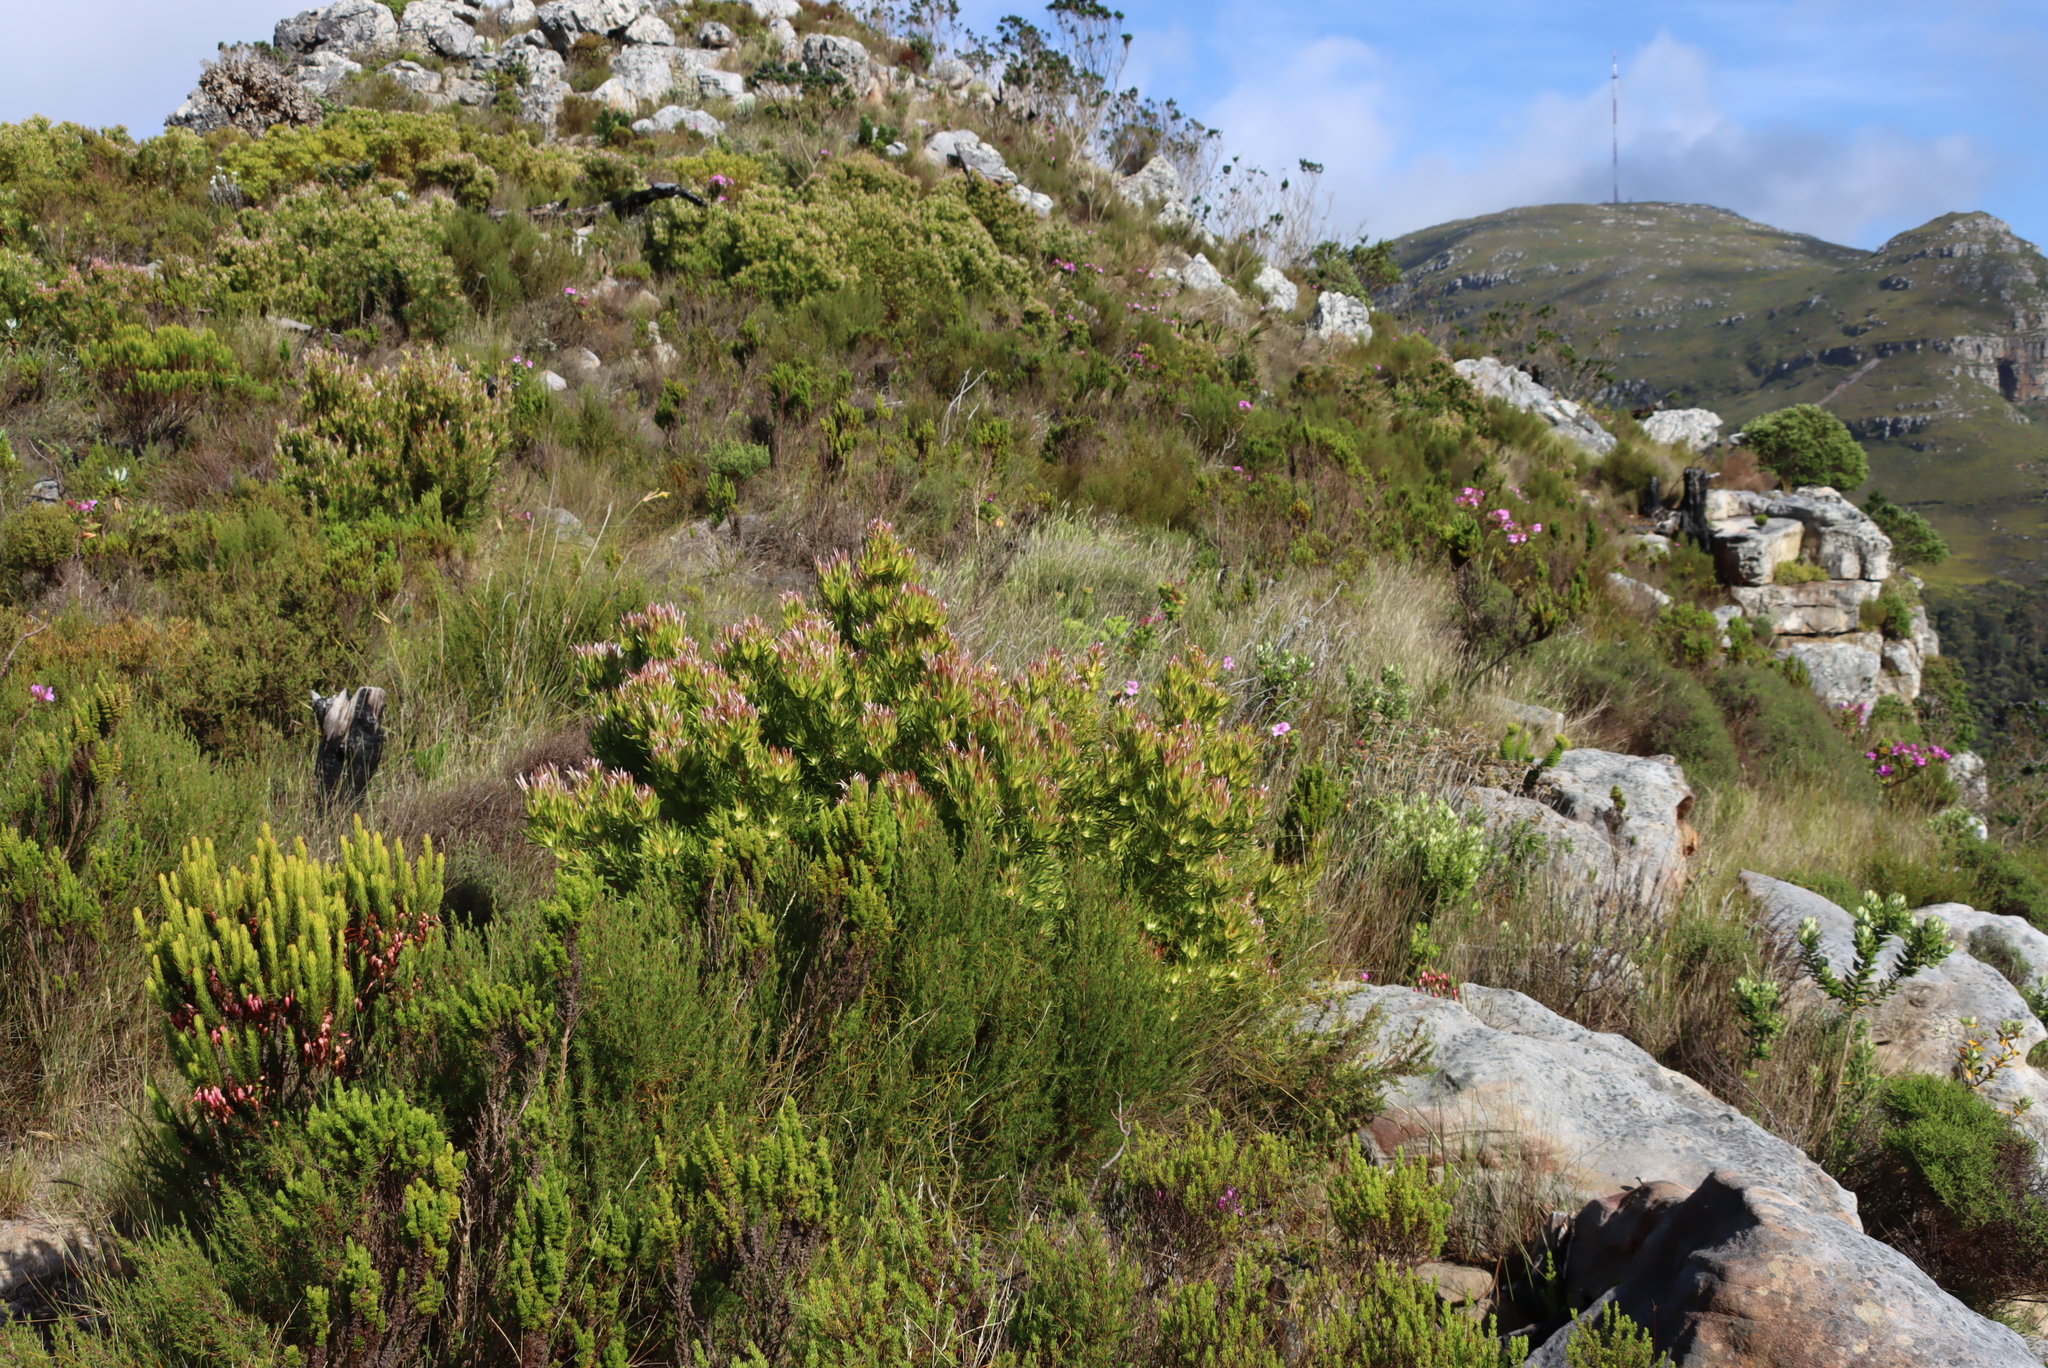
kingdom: Plantae
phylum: Tracheophyta
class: Magnoliopsida
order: Proteales
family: Proteaceae
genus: Leucadendron
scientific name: Leucadendron xanthoconus
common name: Sickle-leaf conebush
